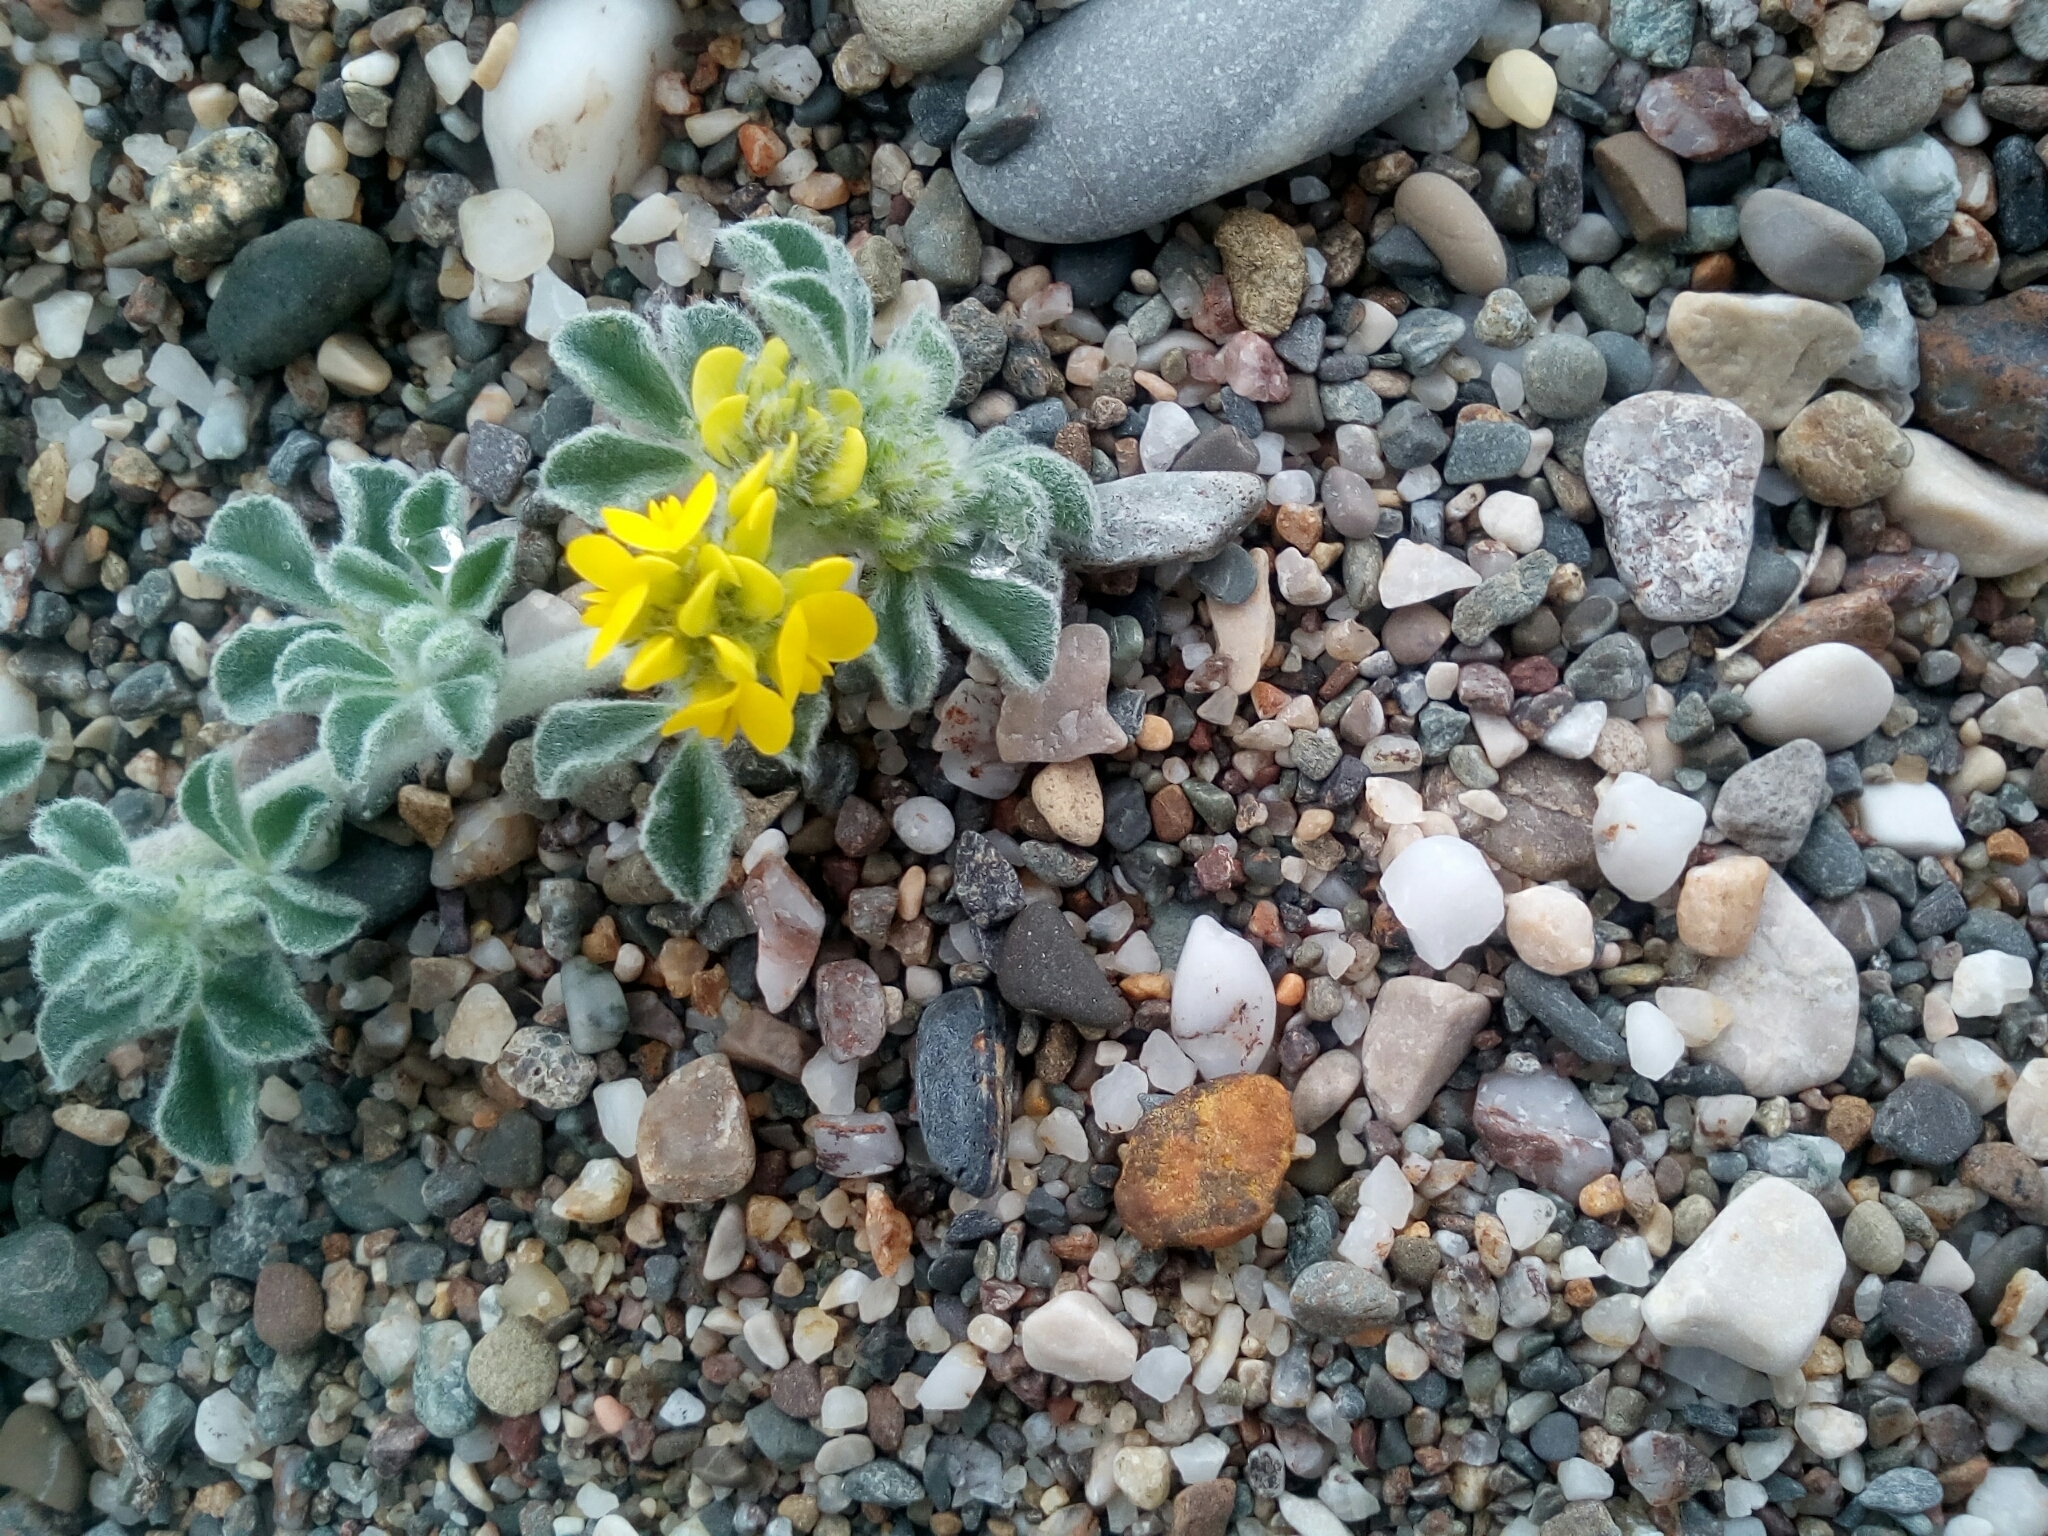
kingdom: Plantae
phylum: Tracheophyta
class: Magnoliopsida
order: Fabales
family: Fabaceae
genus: Medicago
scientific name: Medicago marina
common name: Sea medick
